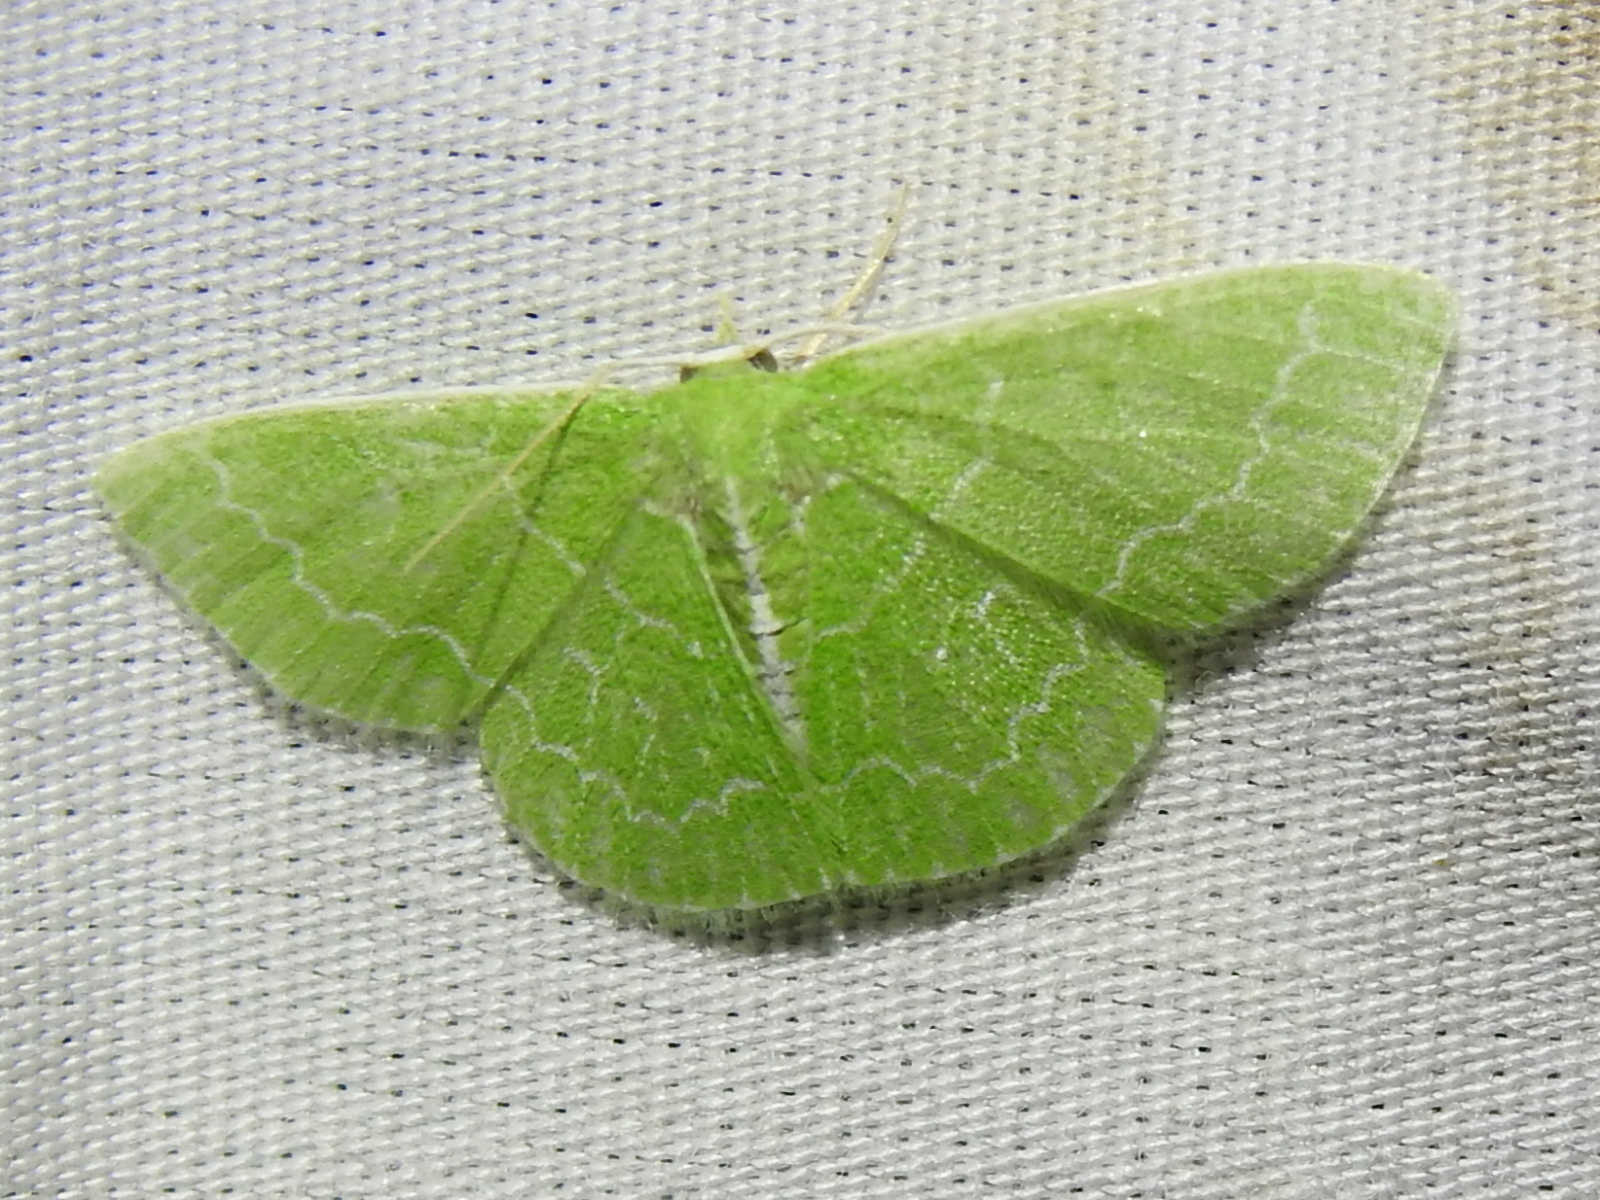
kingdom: Animalia
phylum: Arthropoda
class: Insecta
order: Lepidoptera
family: Geometridae
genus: Synchlora
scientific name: Synchlora frondaria
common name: Southern emerald
